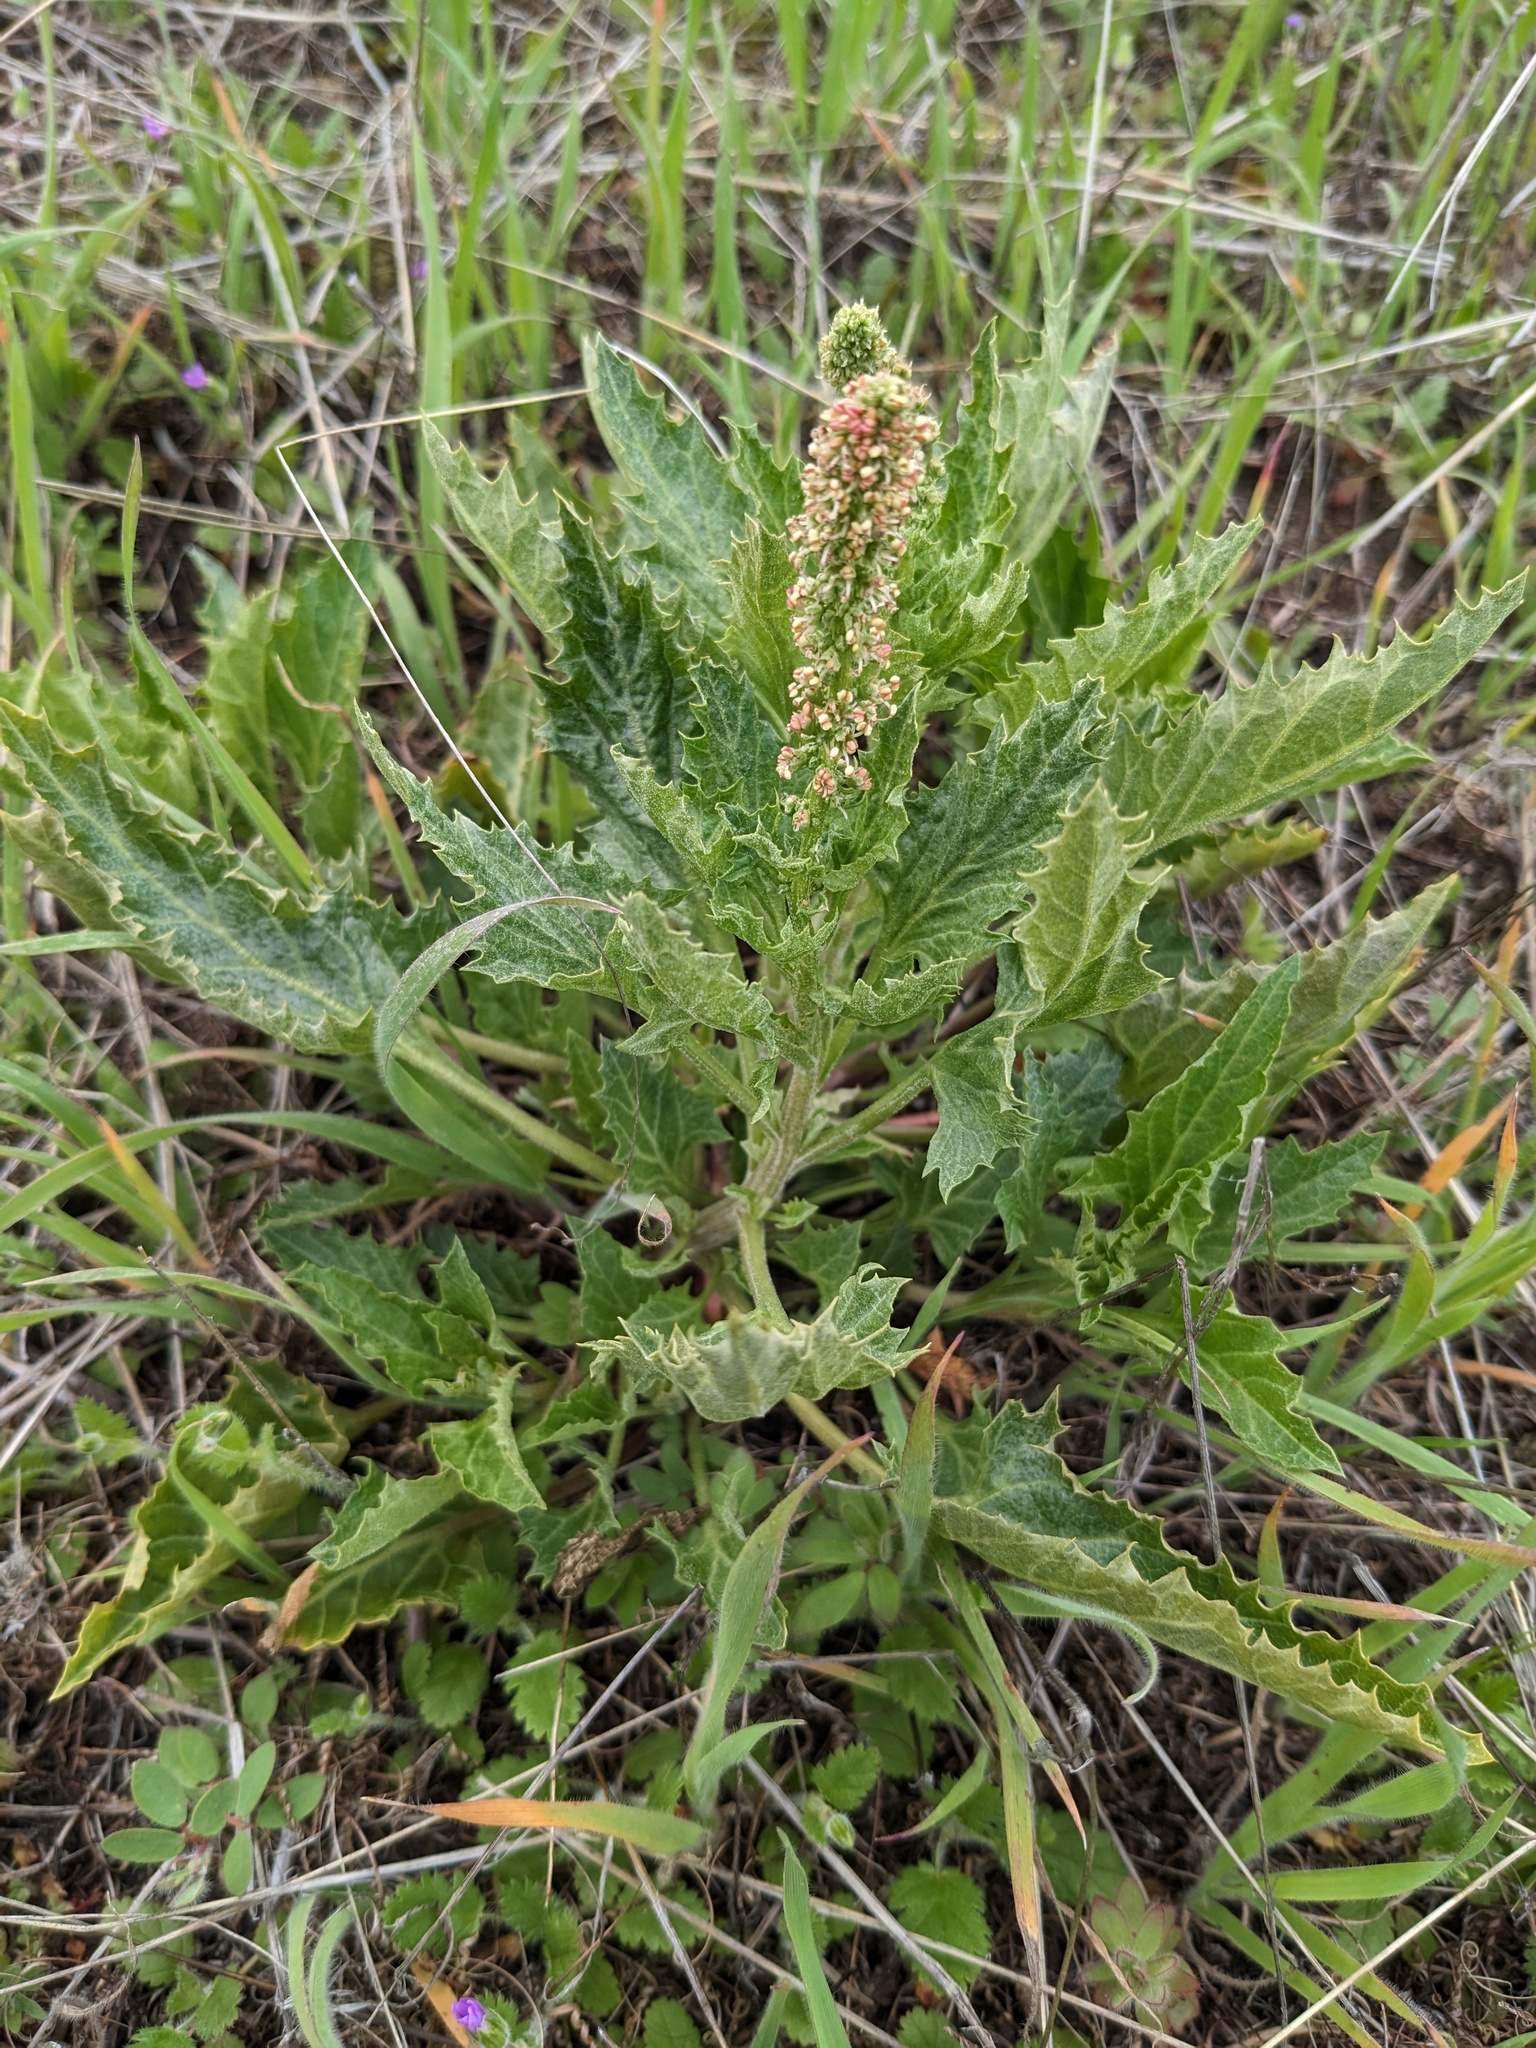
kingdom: Plantae
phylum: Tracheophyta
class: Magnoliopsida
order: Caryophyllales
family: Amaranthaceae
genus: Blitum
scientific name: Blitum californicum
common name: California goosefoot
